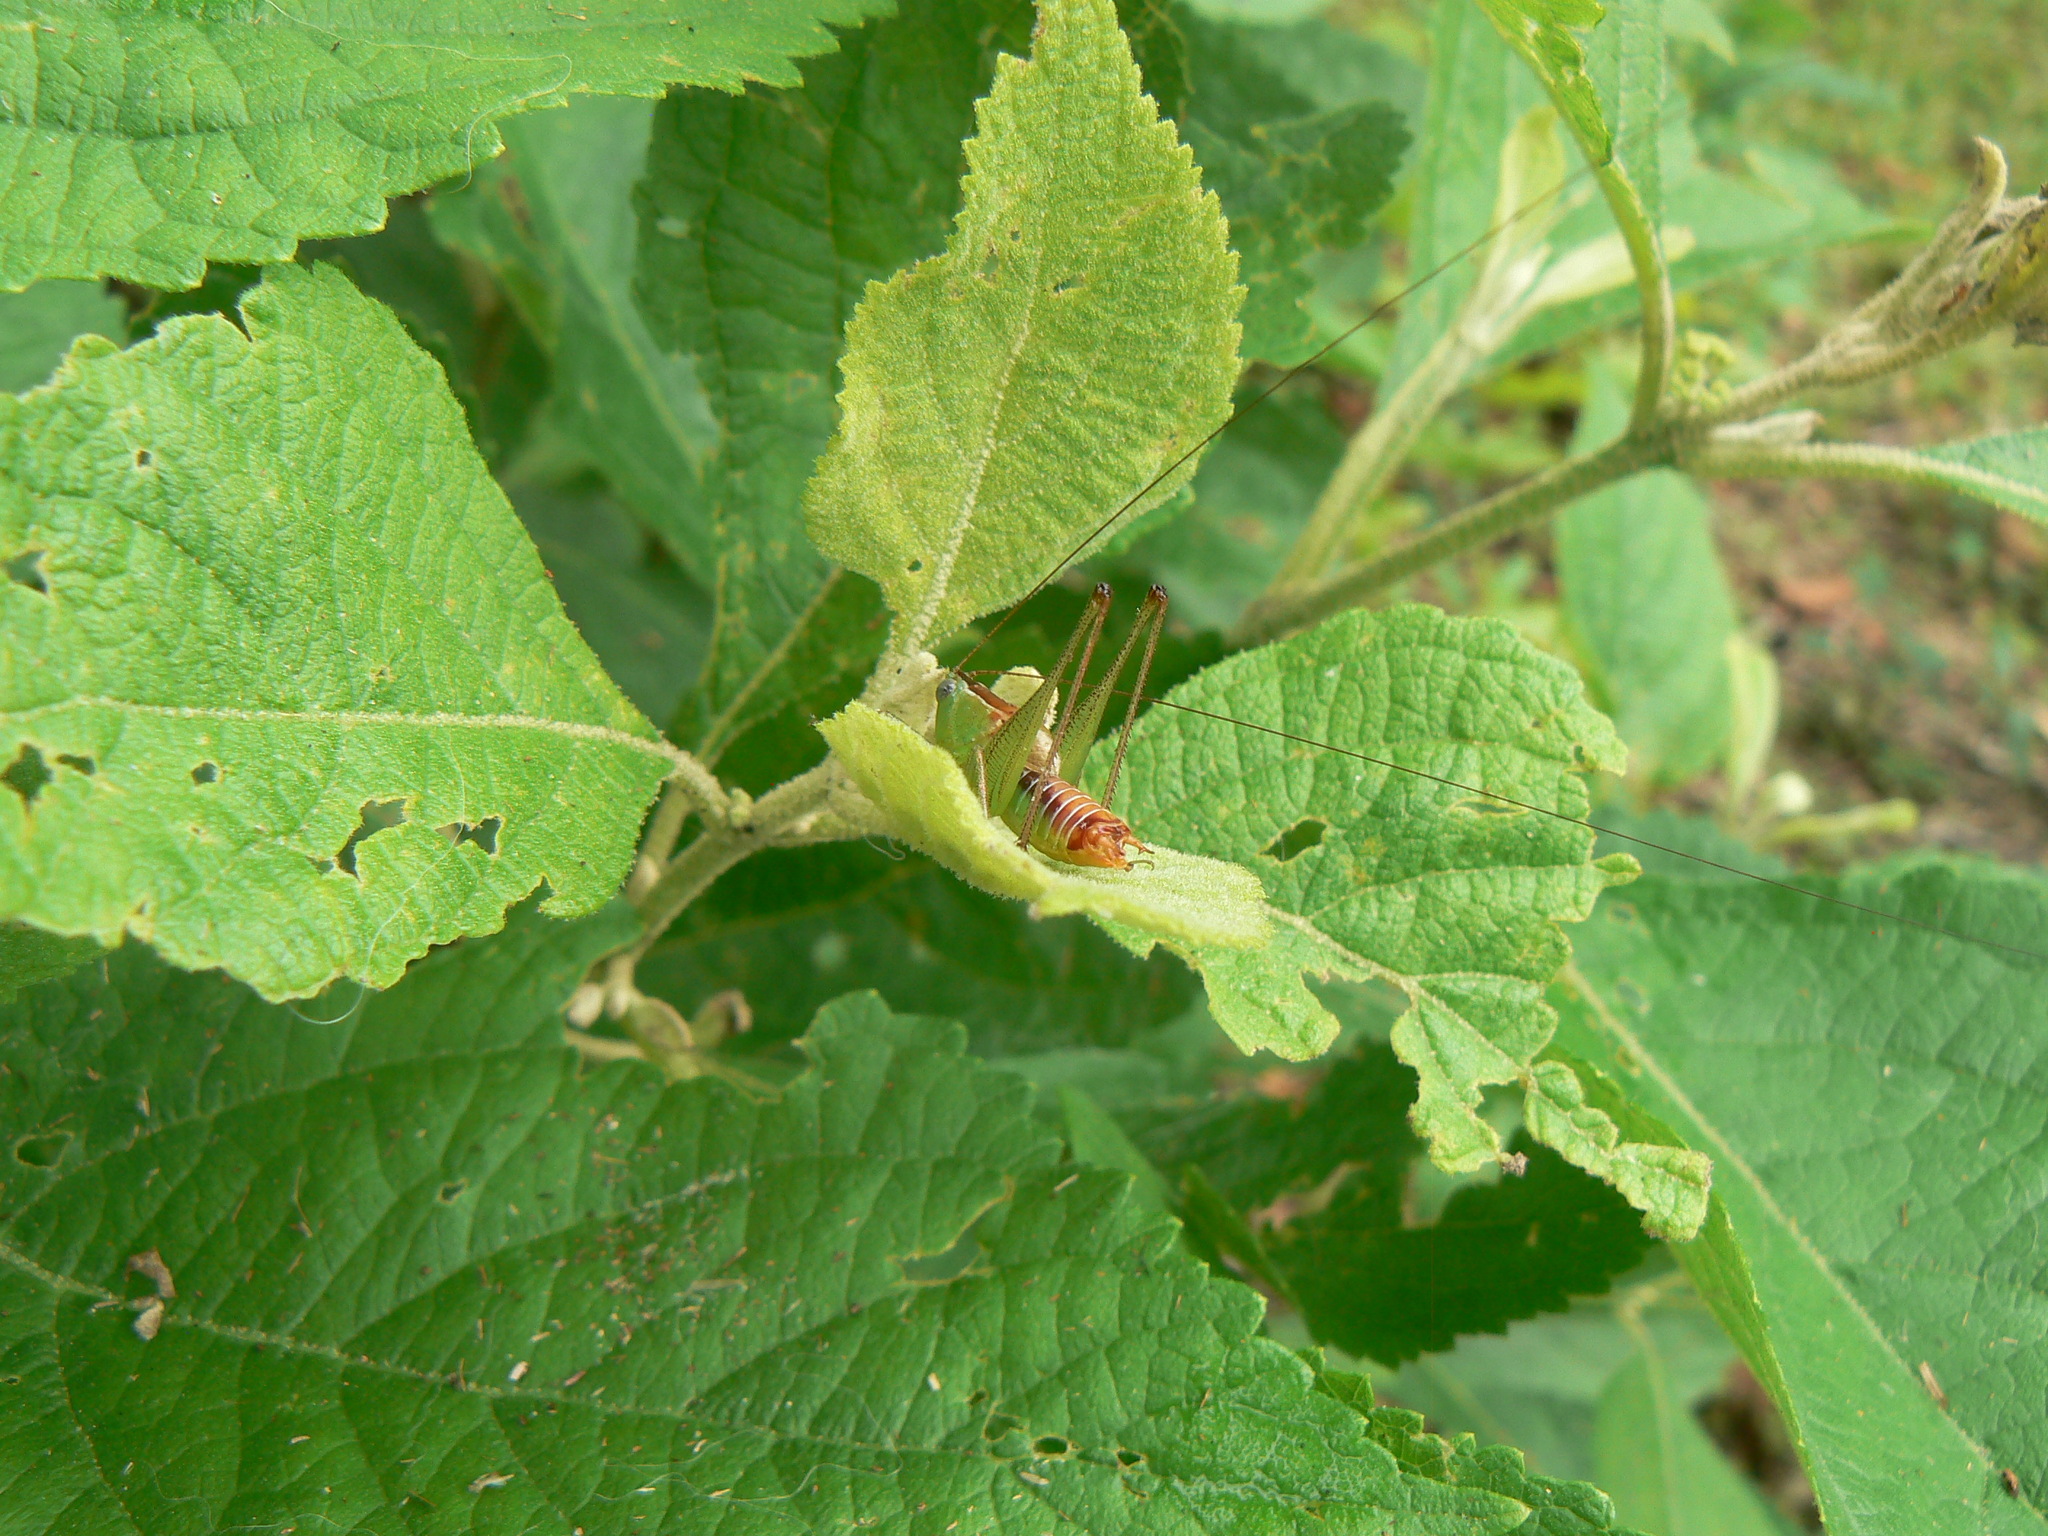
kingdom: Animalia
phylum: Arthropoda
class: Insecta
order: Orthoptera
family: Tettigoniidae
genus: Odontoxiphidium
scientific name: Odontoxiphidium apterum
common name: Wingless meadow katydid
